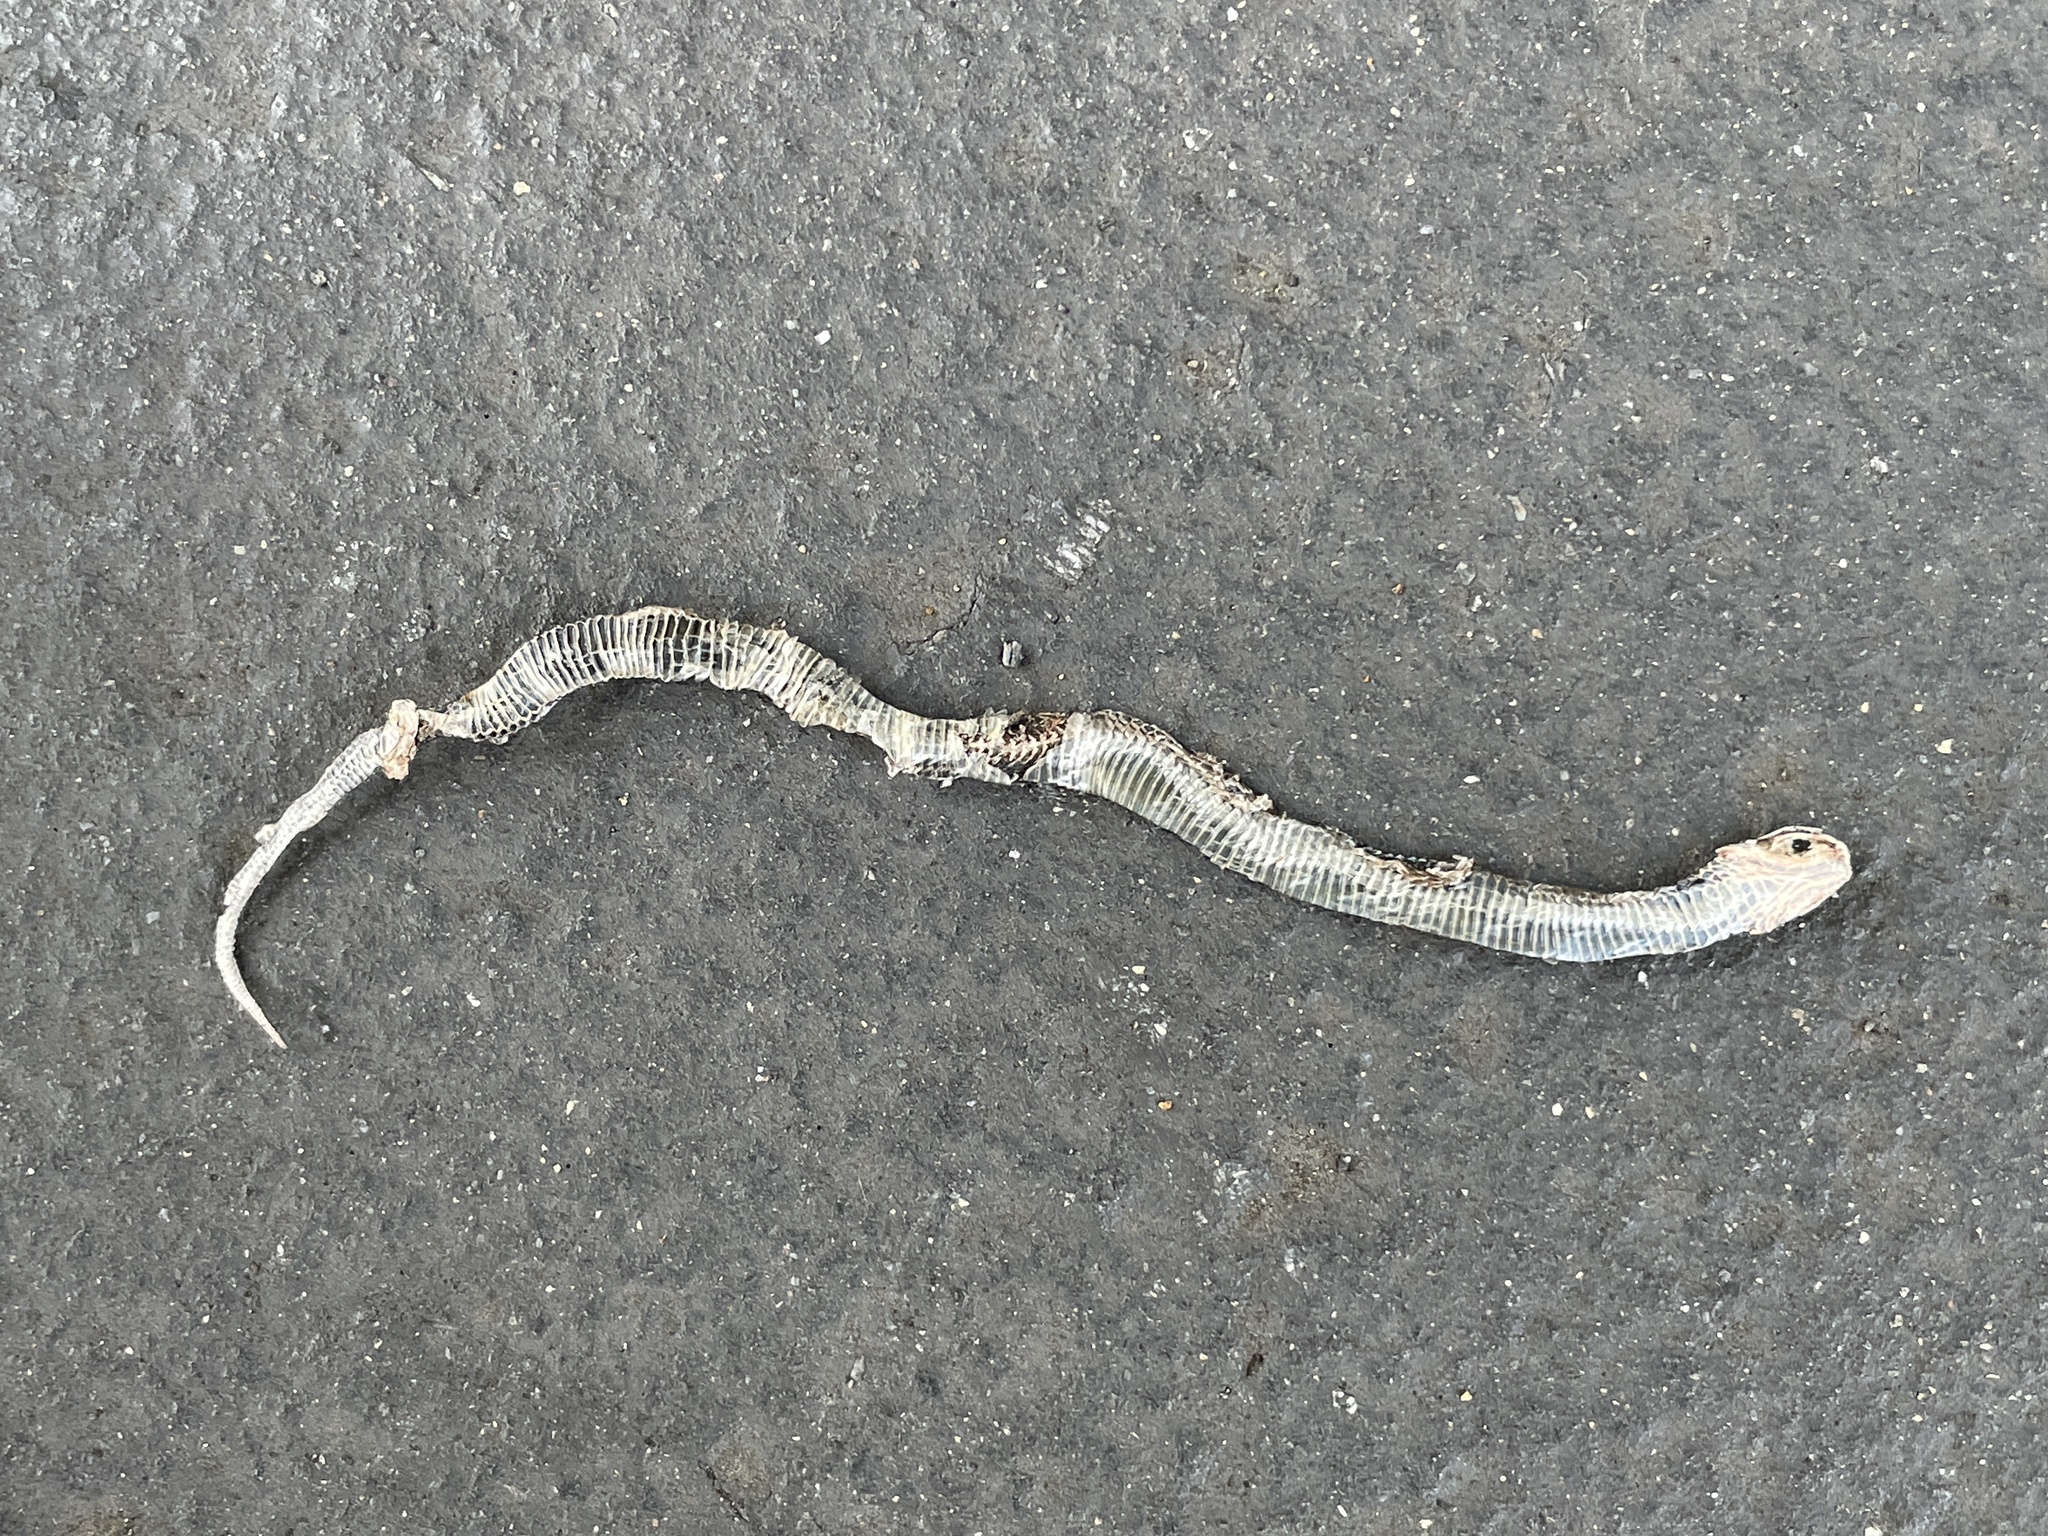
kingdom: Animalia
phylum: Chordata
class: Squamata
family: Colubridae
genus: Thamnophis
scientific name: Thamnophis ordinoides
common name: Northwestern garter snake
